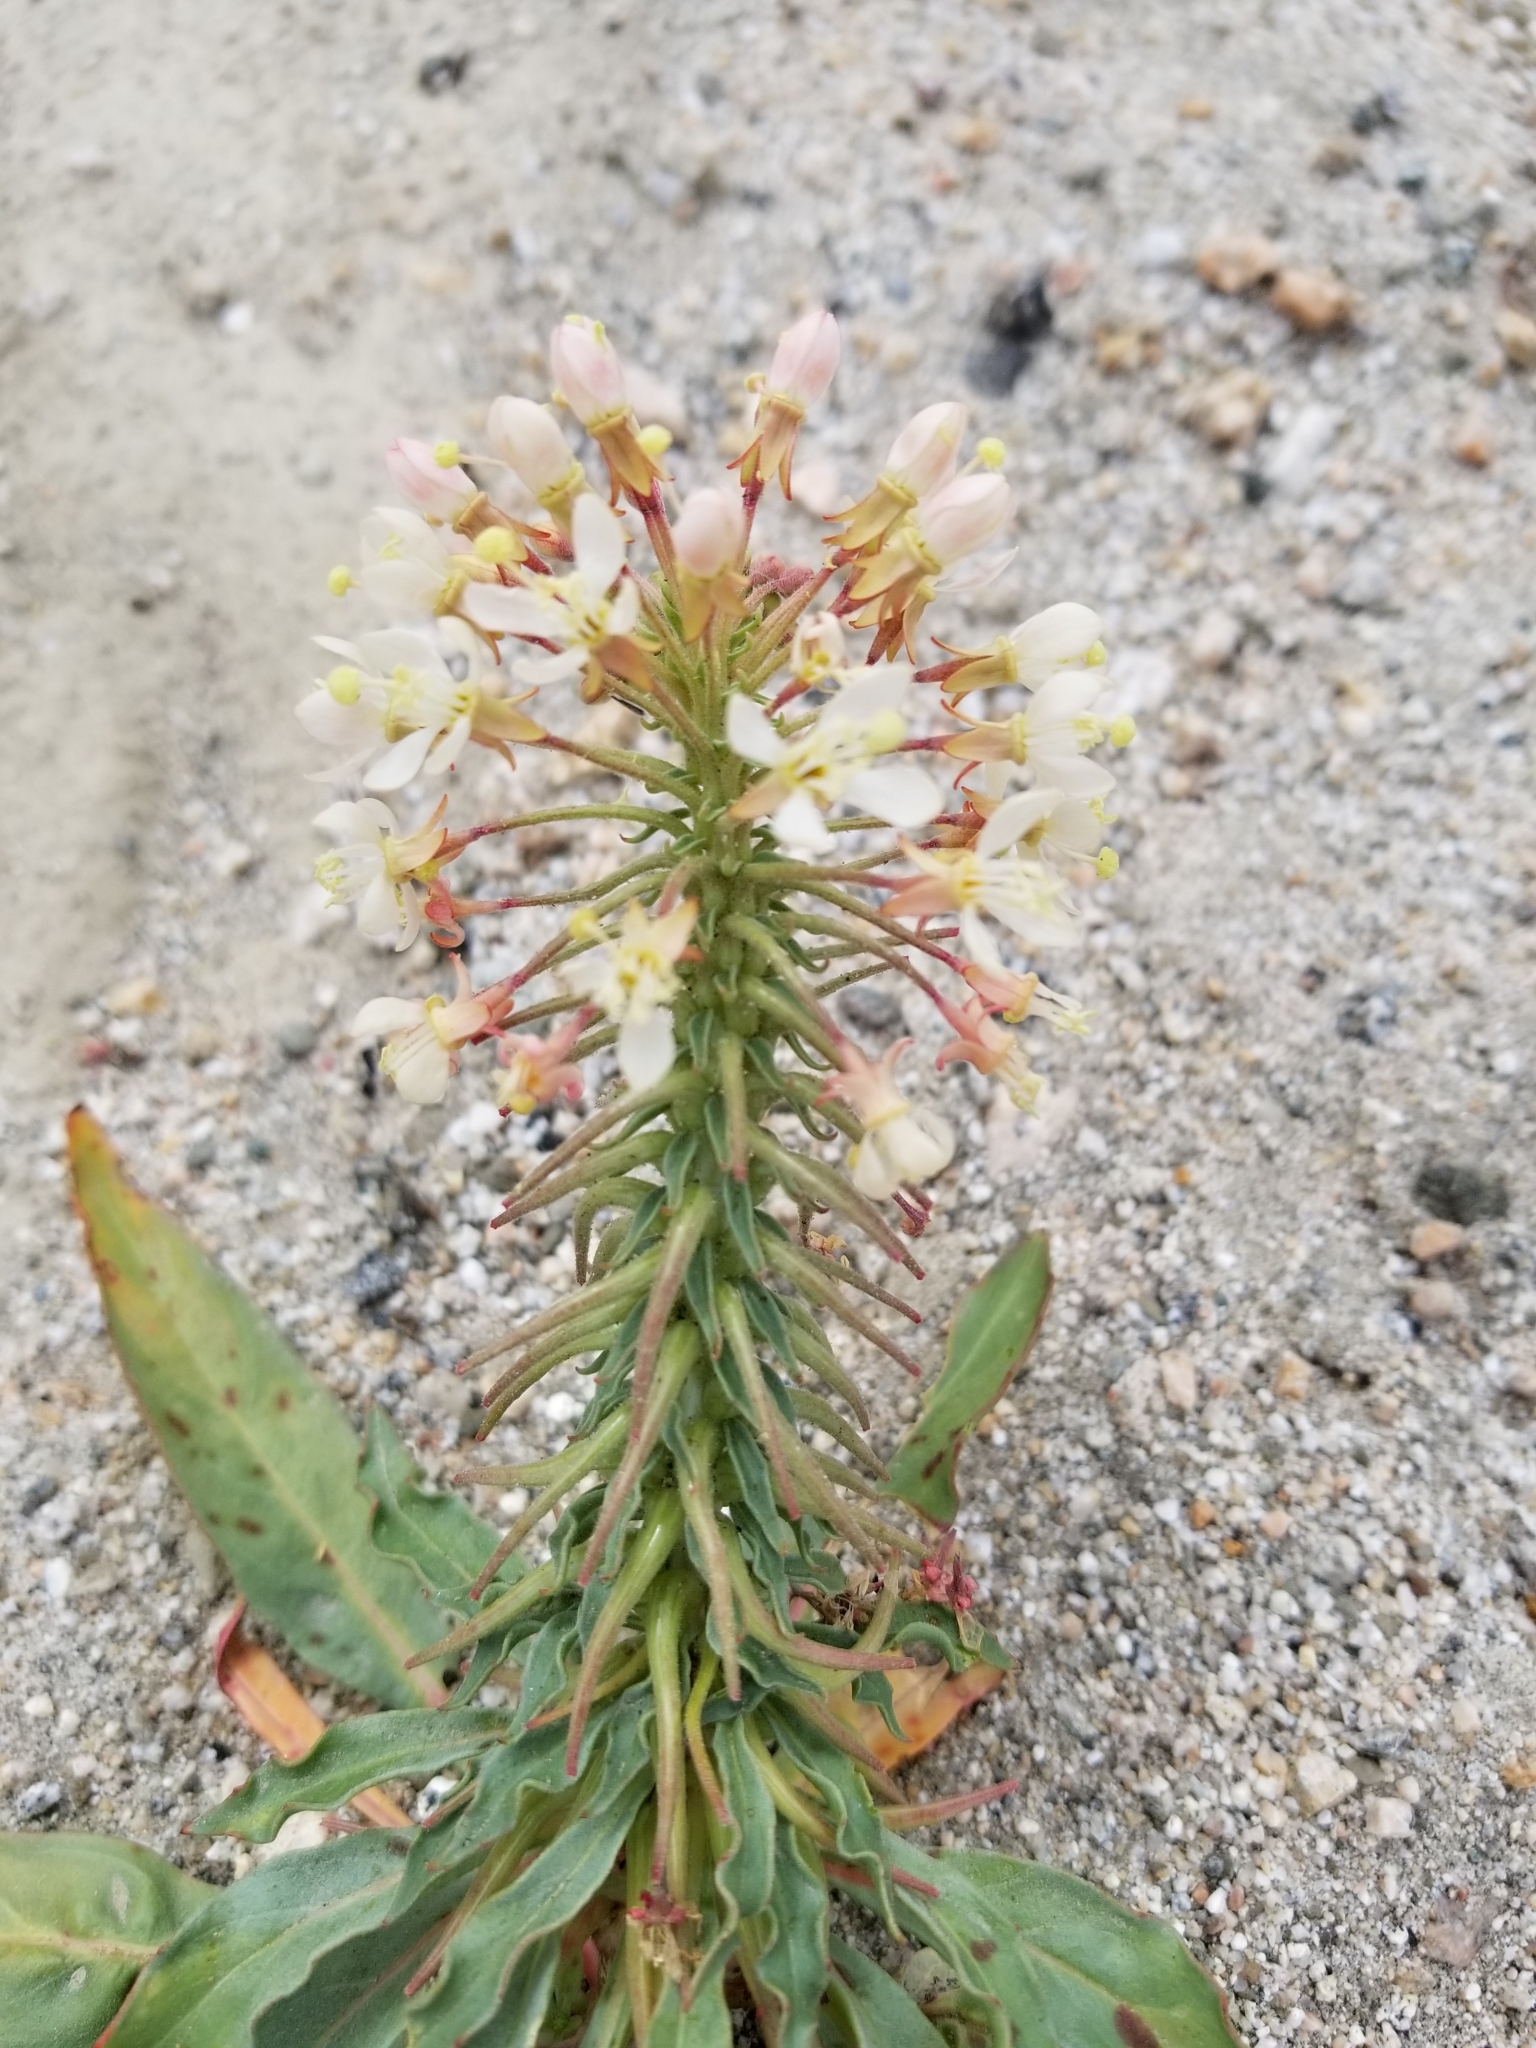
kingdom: Plantae
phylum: Tracheophyta
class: Magnoliopsida
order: Myrtales
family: Onagraceae
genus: Eremothera
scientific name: Eremothera boothii
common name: Booth's evening primrose
